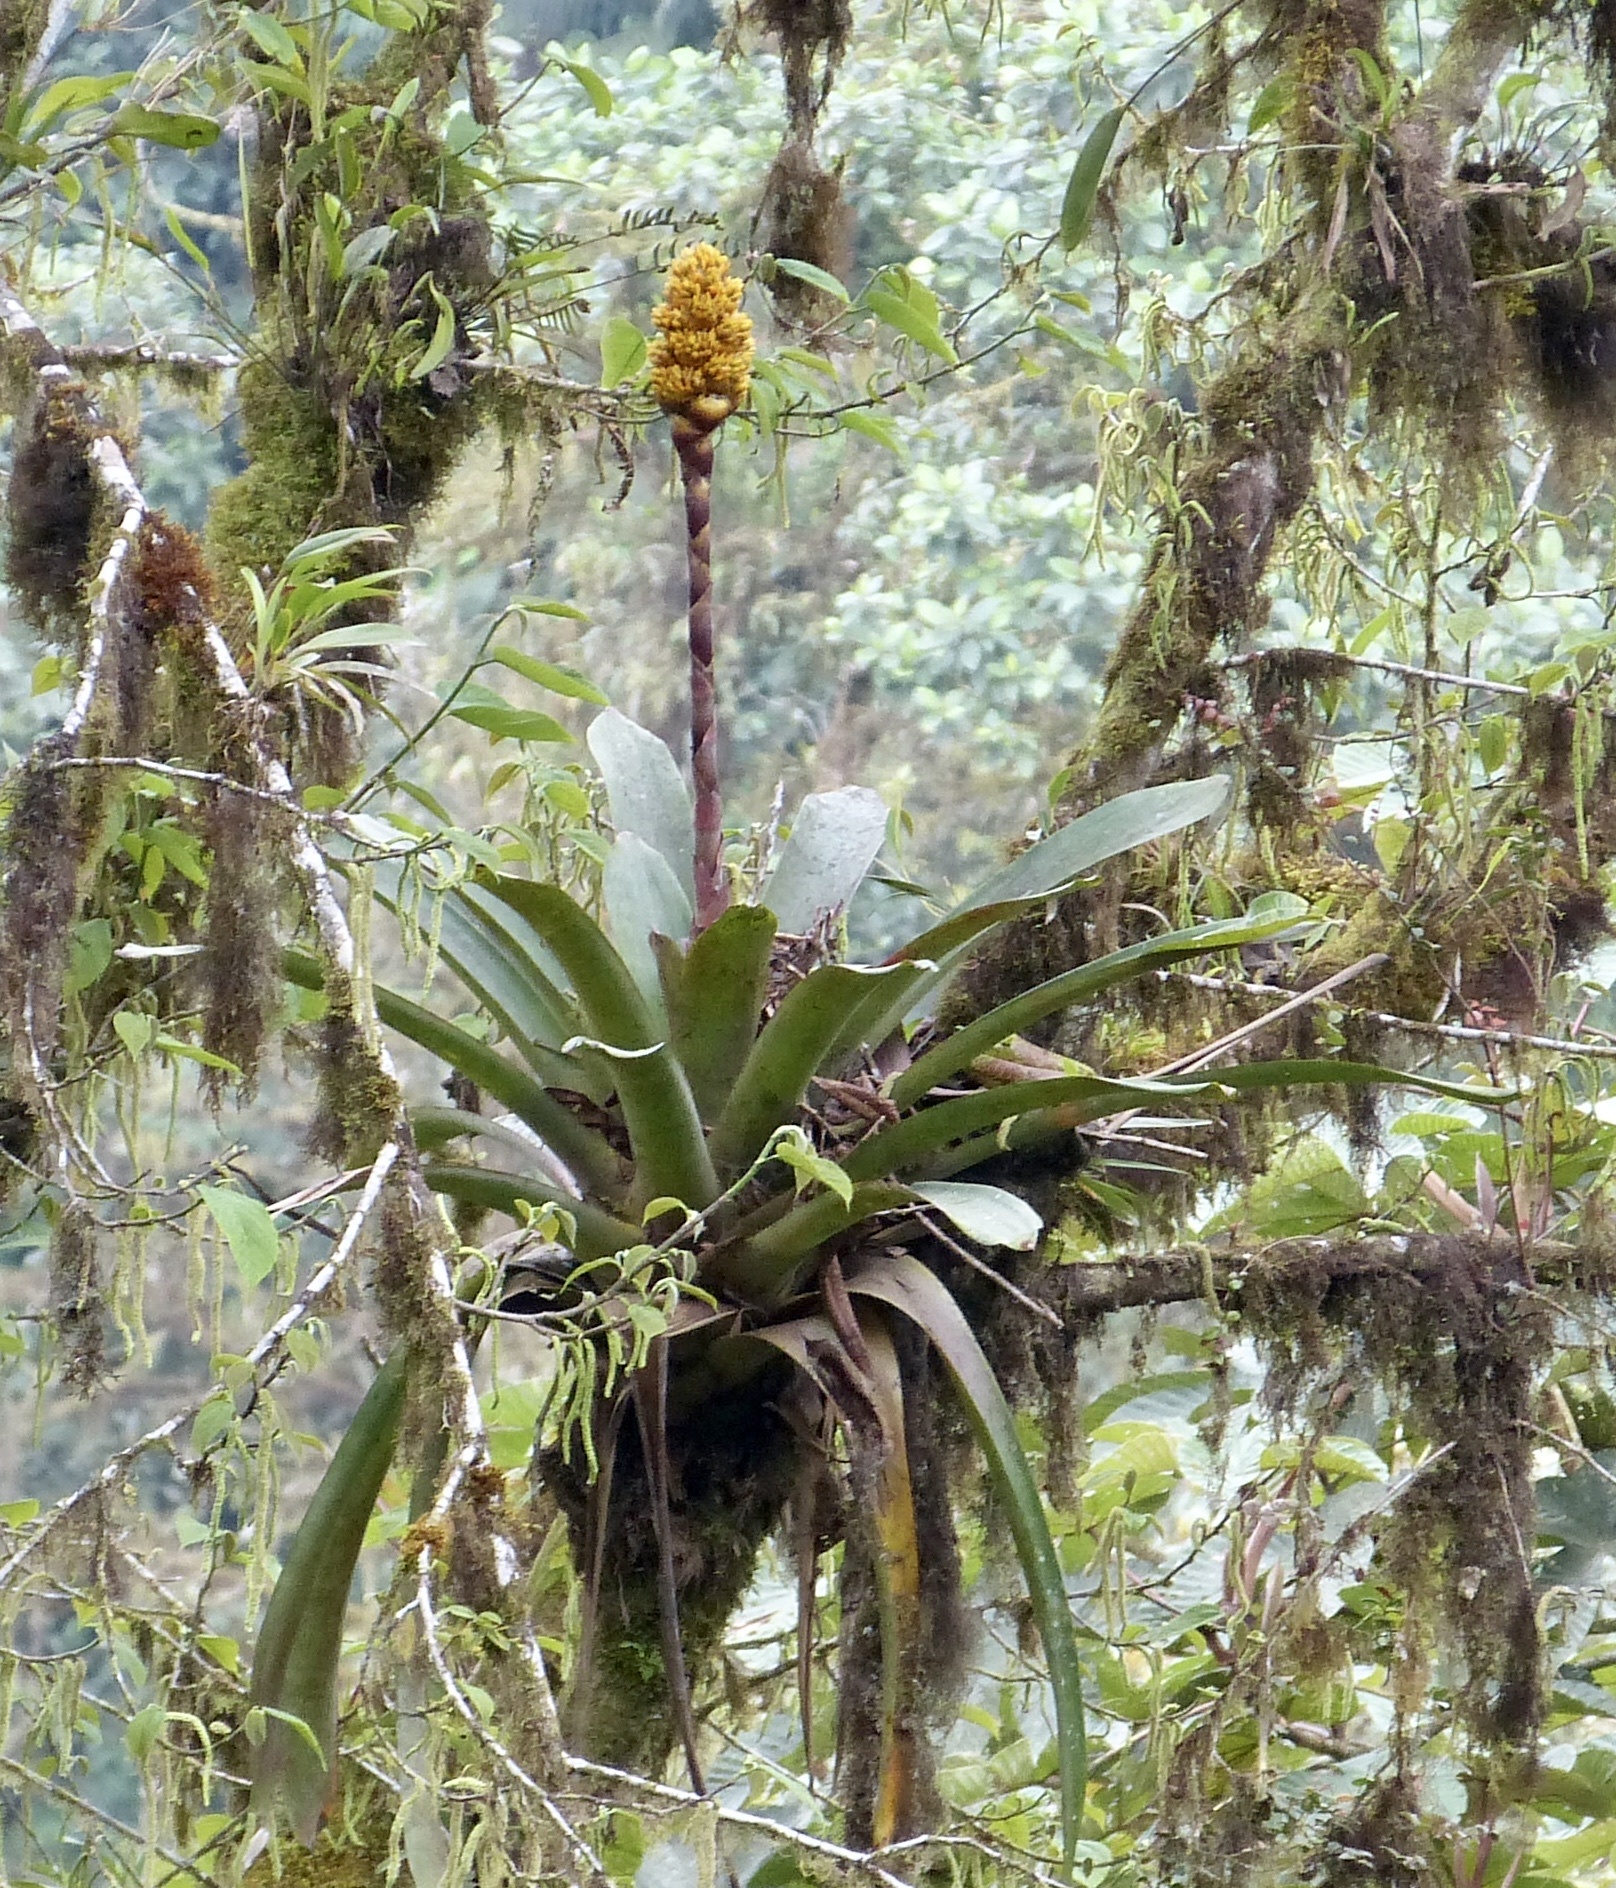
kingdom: Plantae
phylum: Tracheophyta
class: Liliopsida
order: Poales
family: Bromeliaceae
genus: Guzmania
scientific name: Guzmania teuscheri
